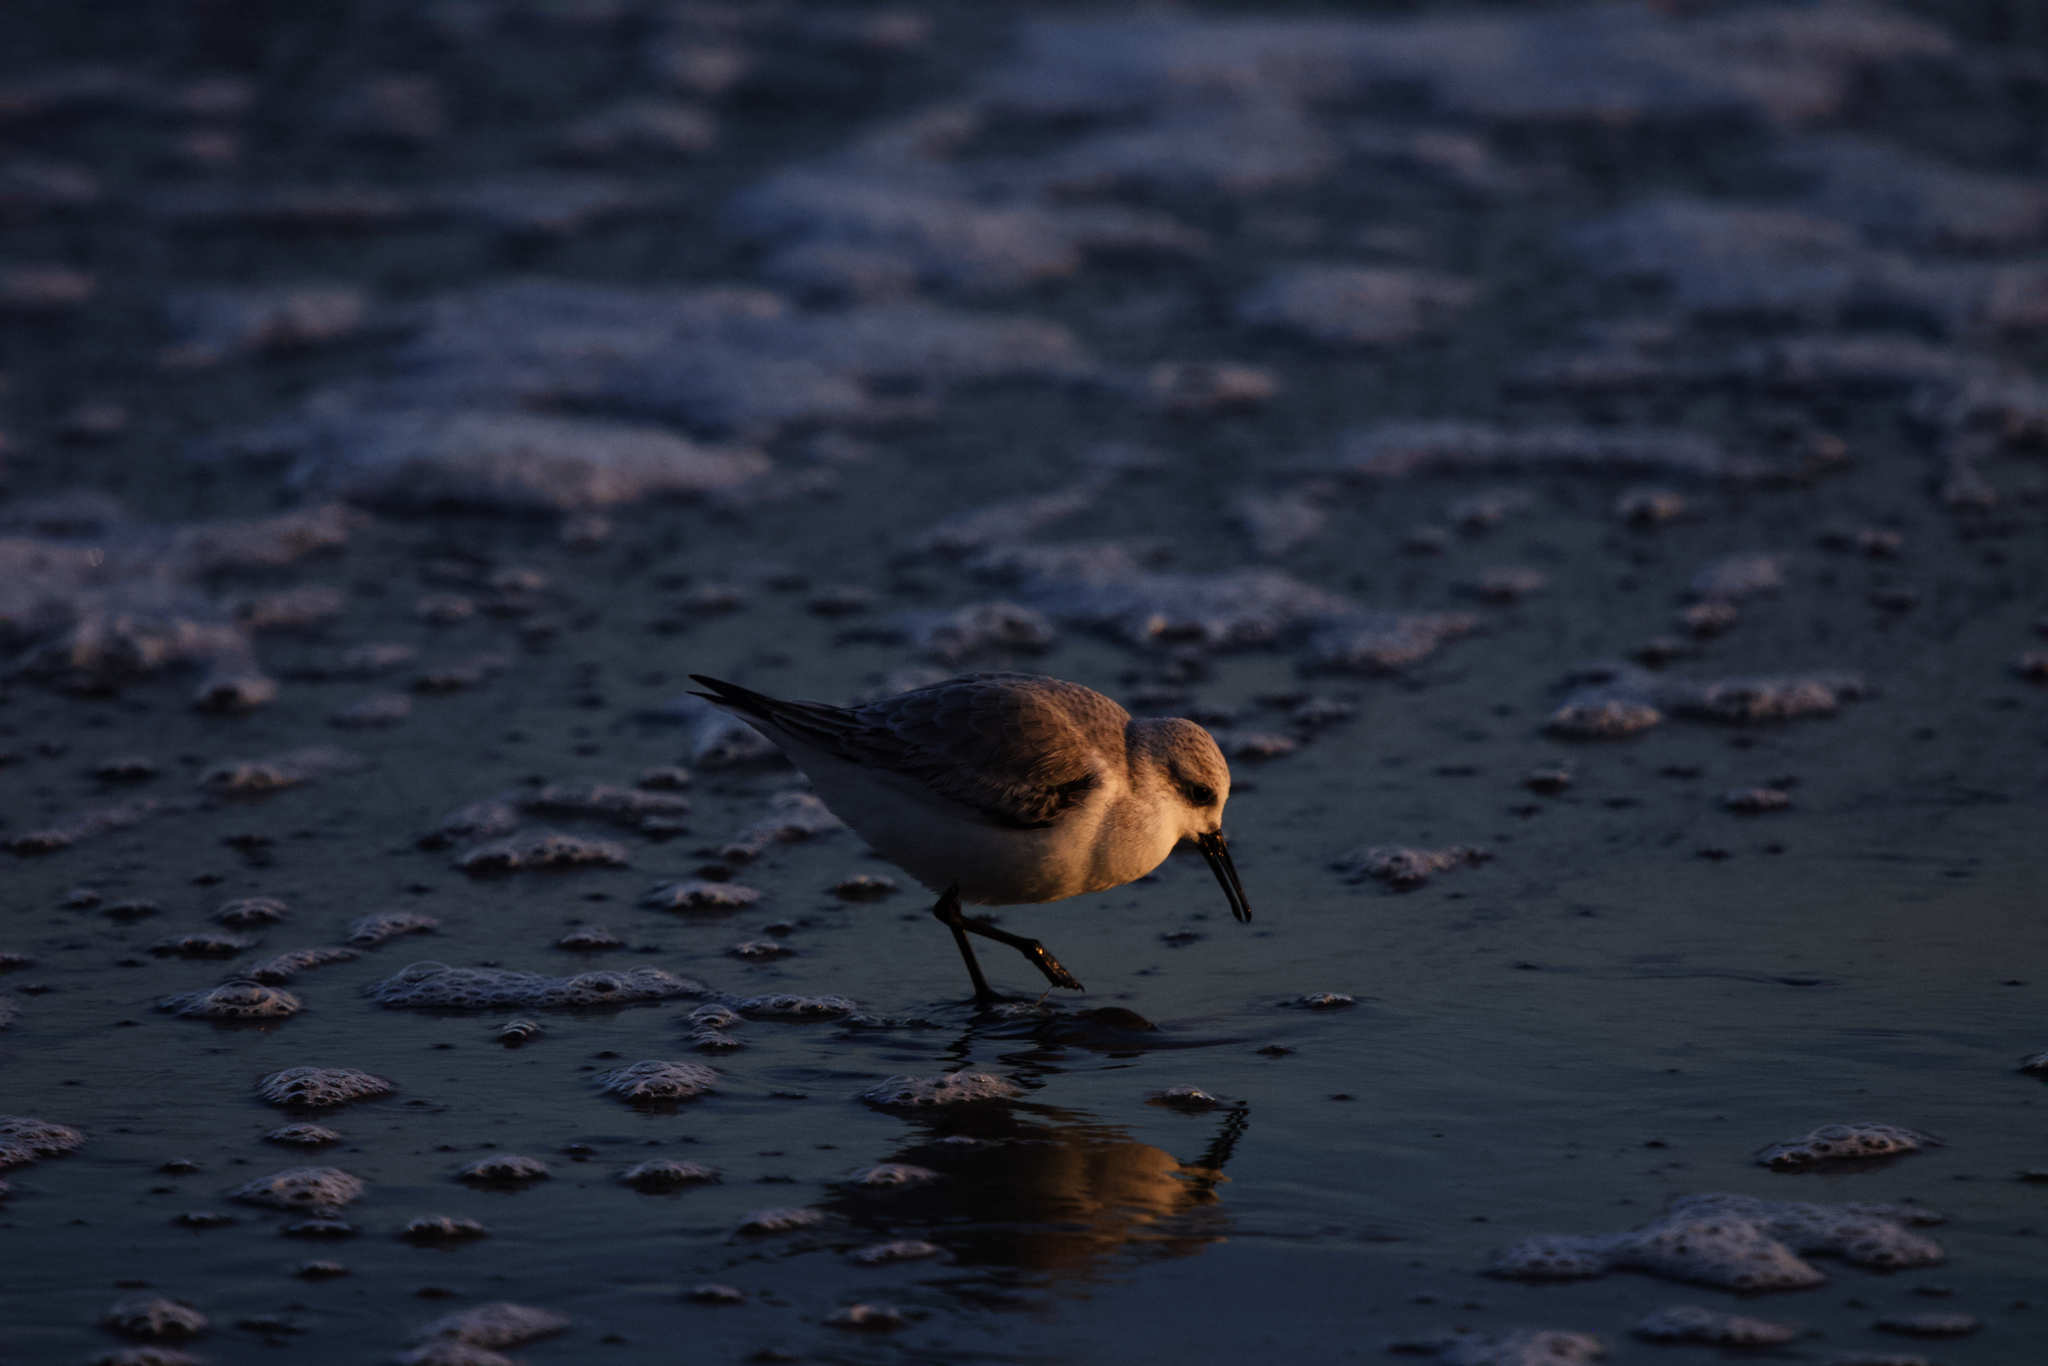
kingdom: Animalia
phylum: Chordata
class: Aves
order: Charadriiformes
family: Scolopacidae
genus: Calidris
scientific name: Calidris alba
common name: Sanderling
